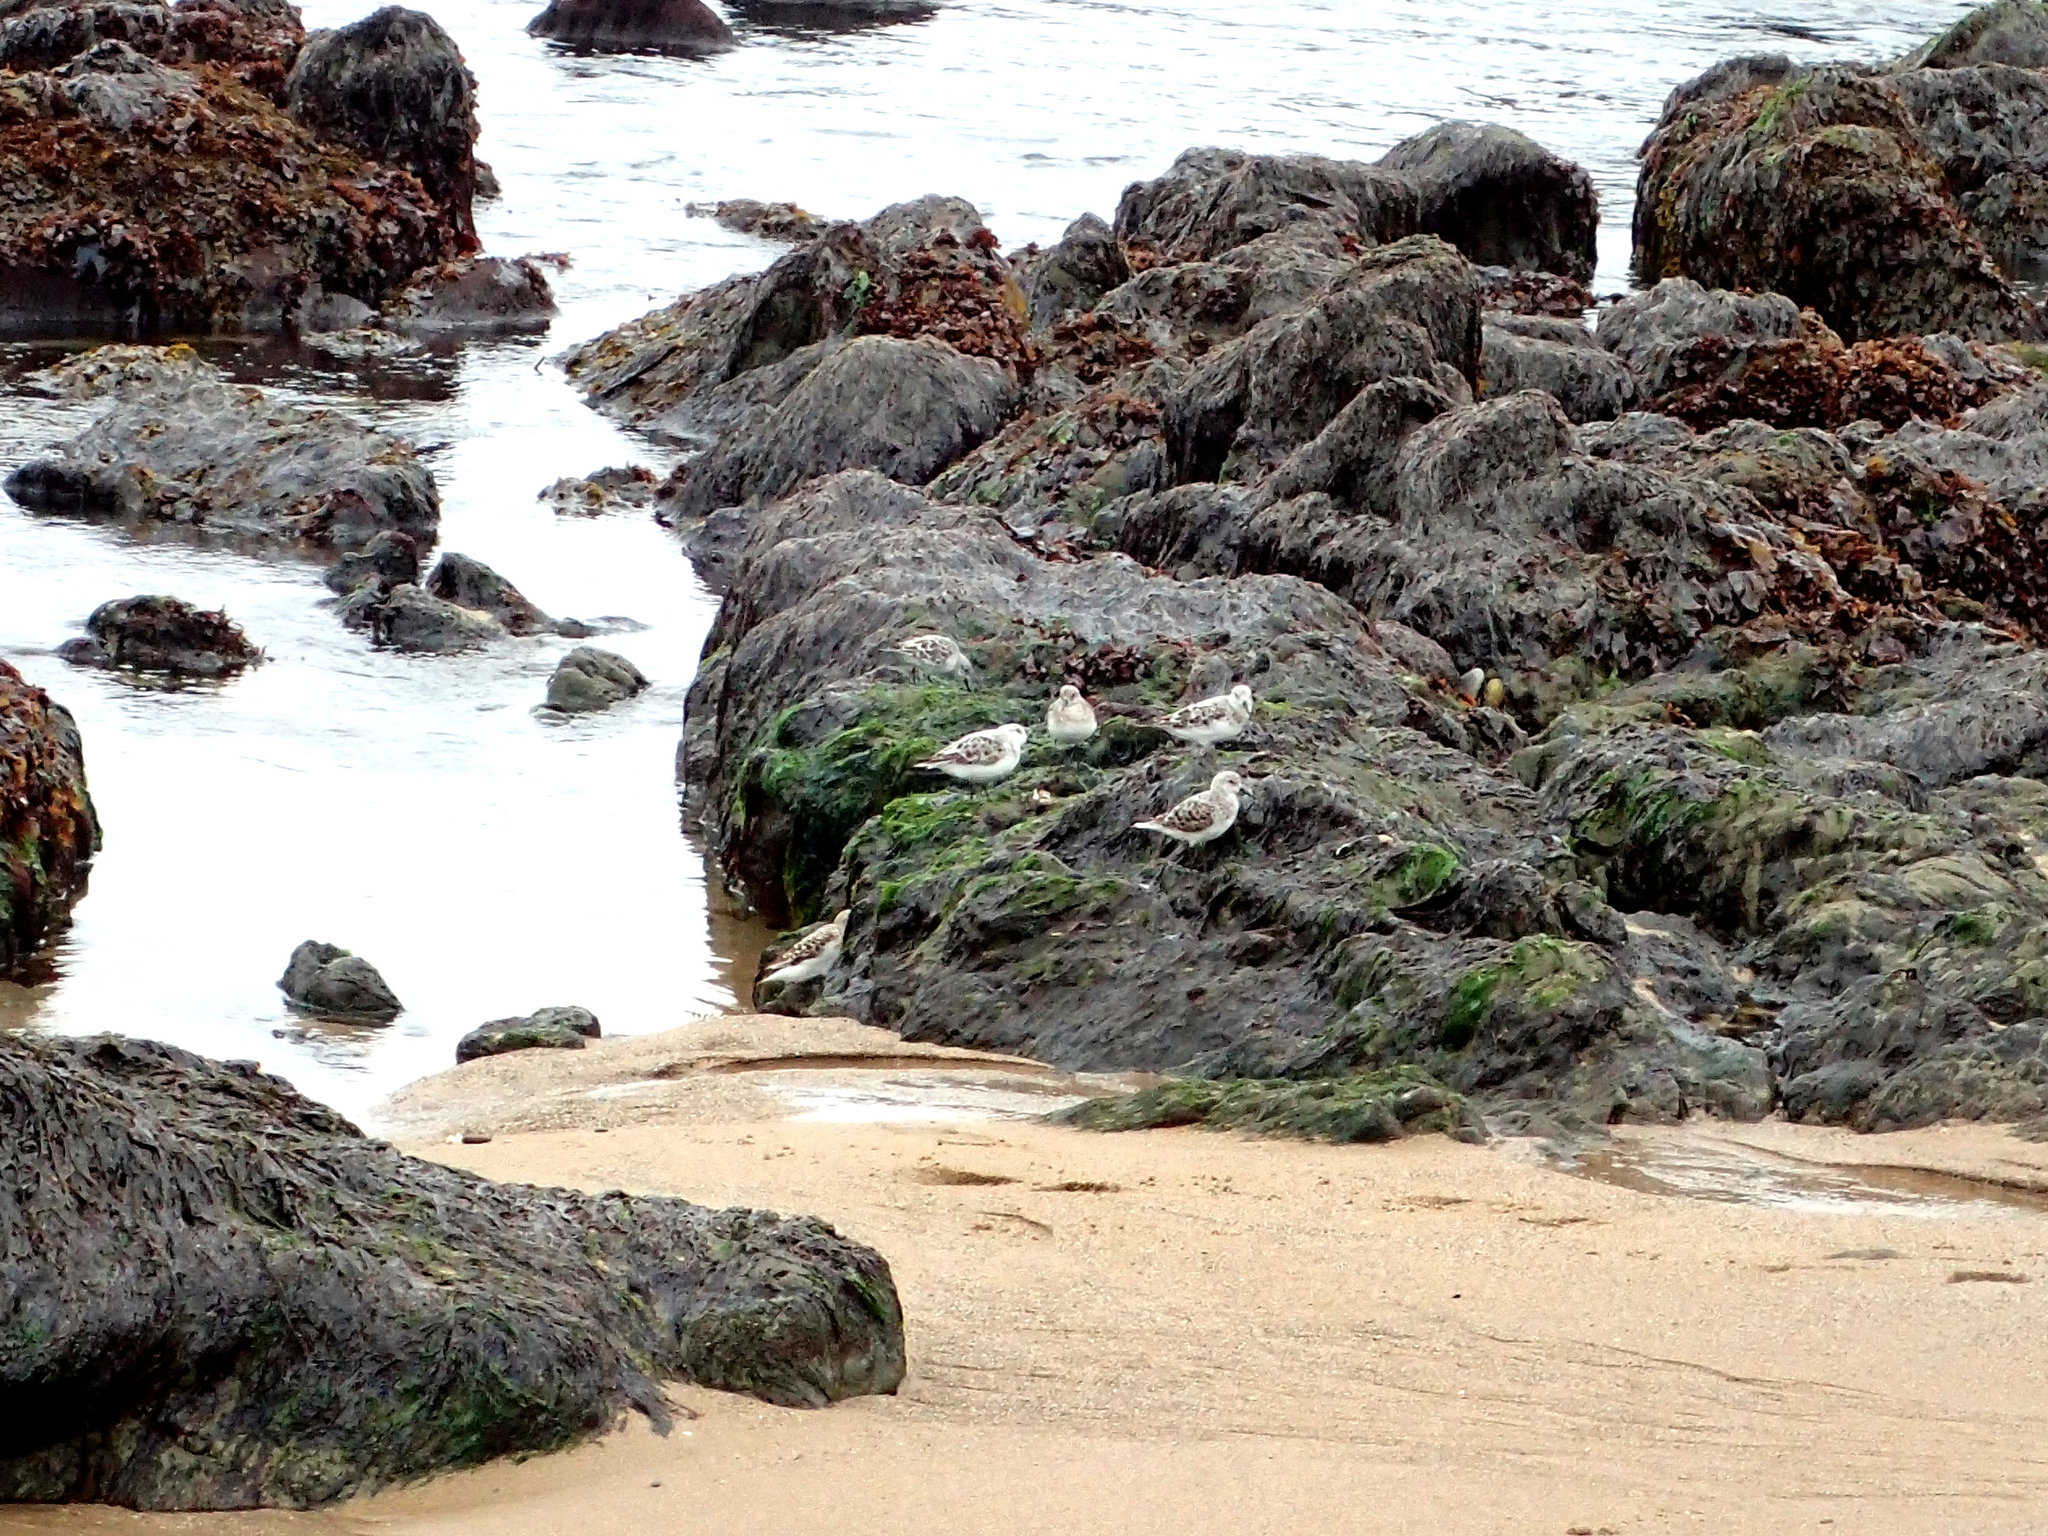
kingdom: Animalia
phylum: Chordata
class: Aves
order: Charadriiformes
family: Scolopacidae
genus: Calidris
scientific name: Calidris alba
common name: Sanderling
